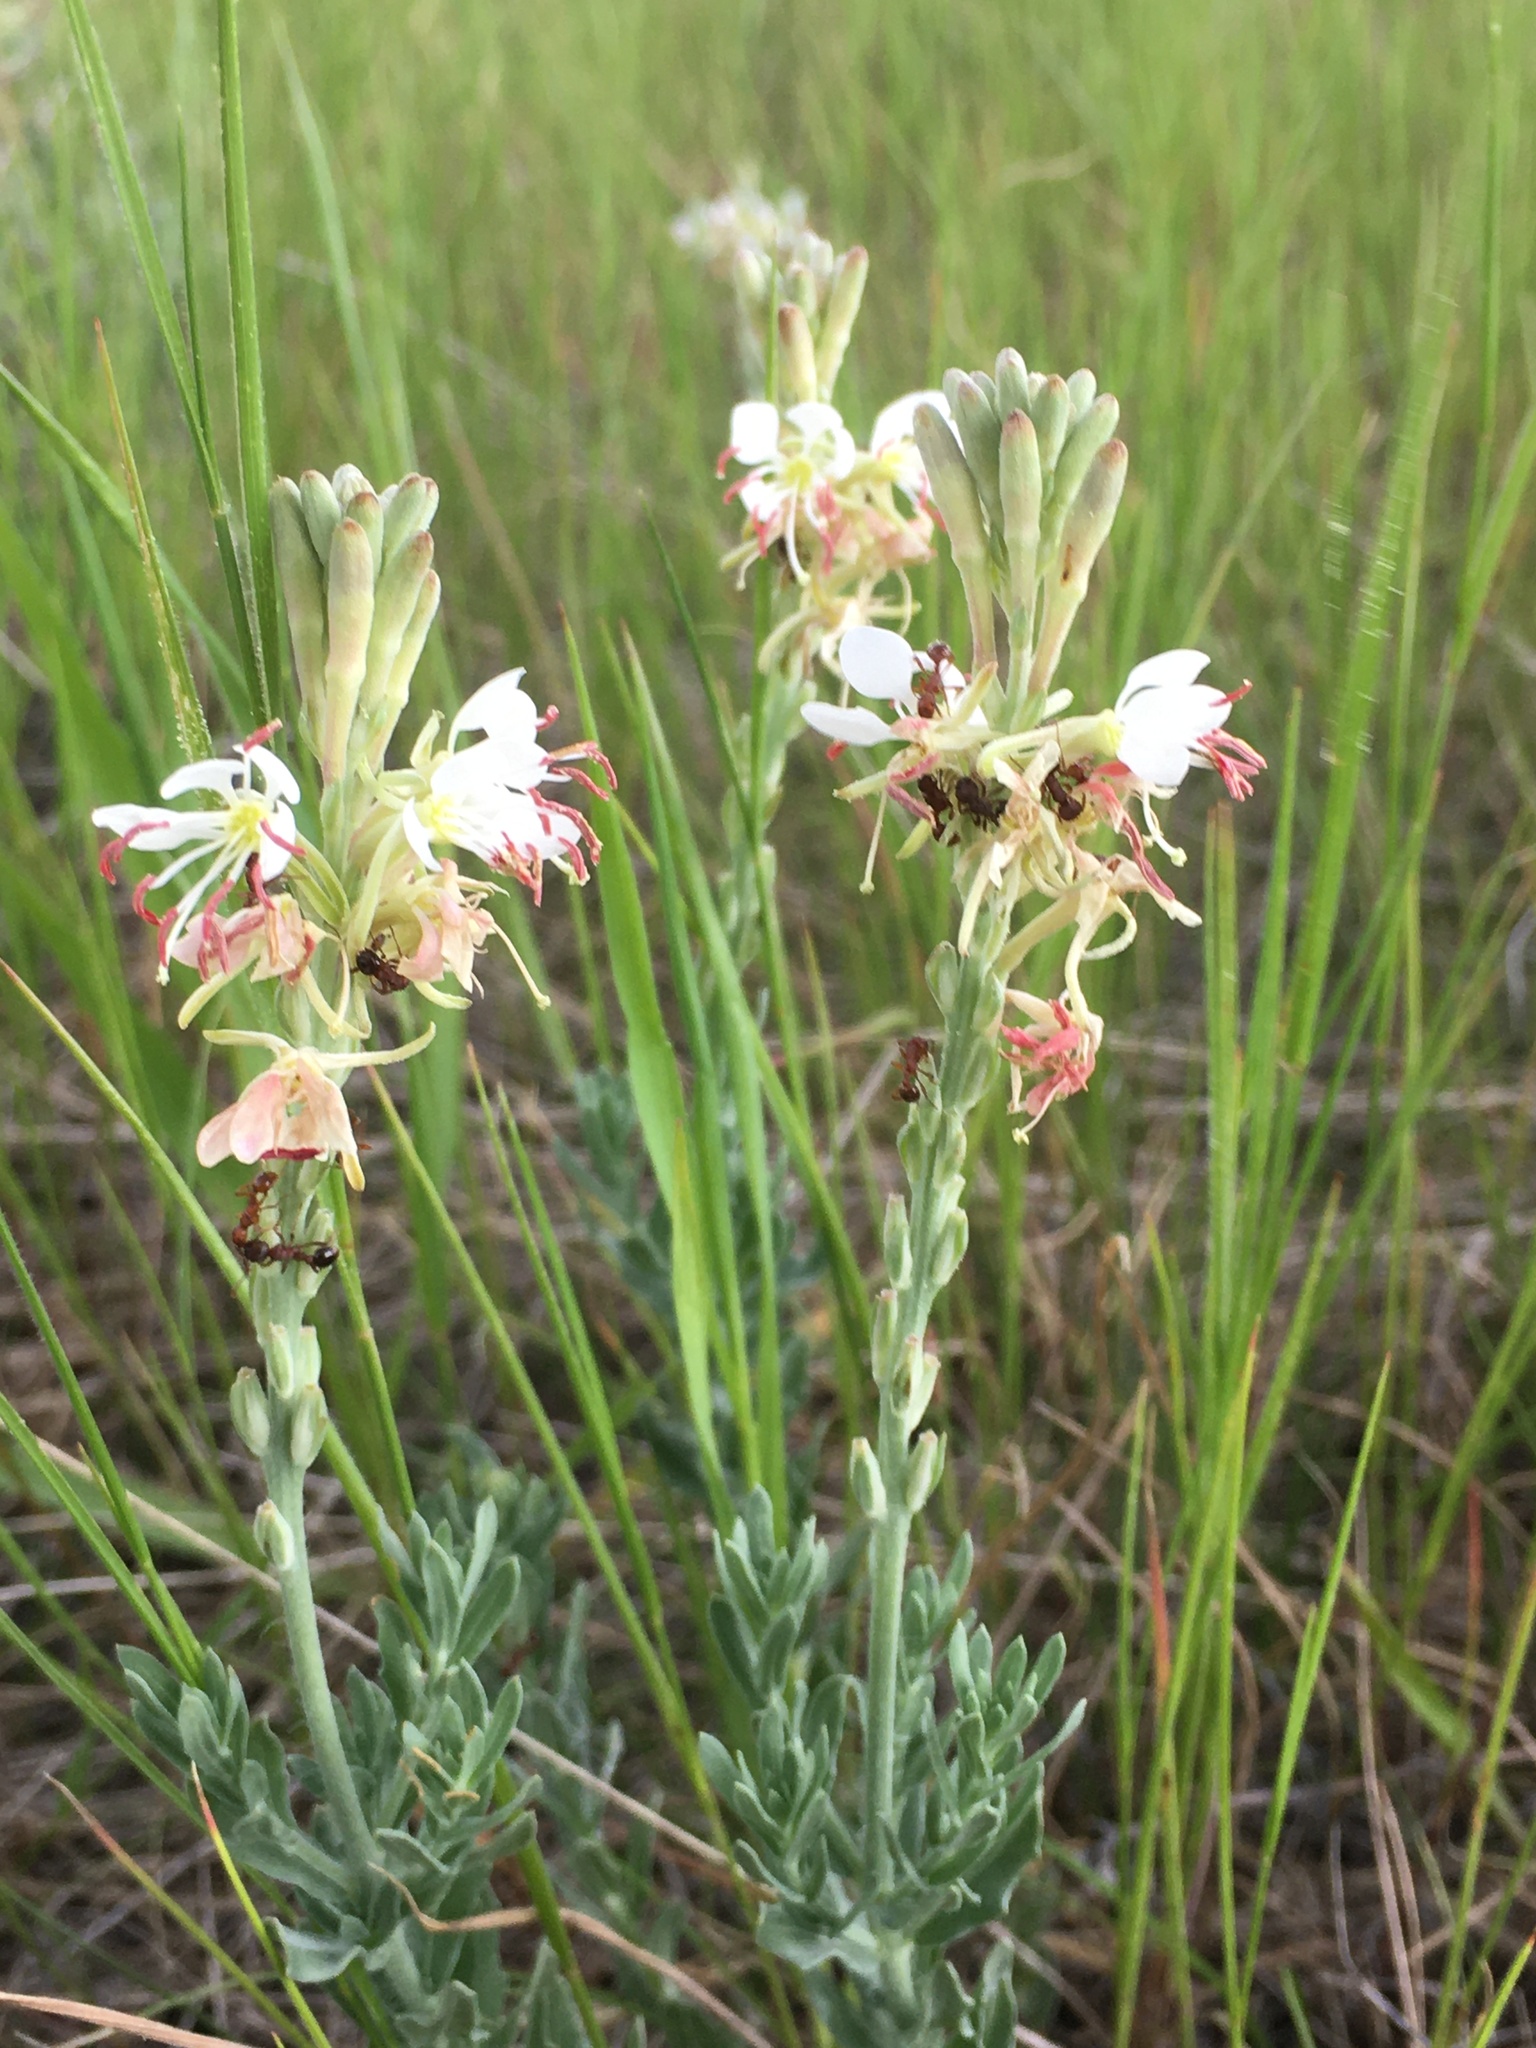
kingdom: Plantae
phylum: Tracheophyta
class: Magnoliopsida
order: Myrtales
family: Onagraceae
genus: Oenothera
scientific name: Oenothera suffrutescens
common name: Scarlet beeblossom
